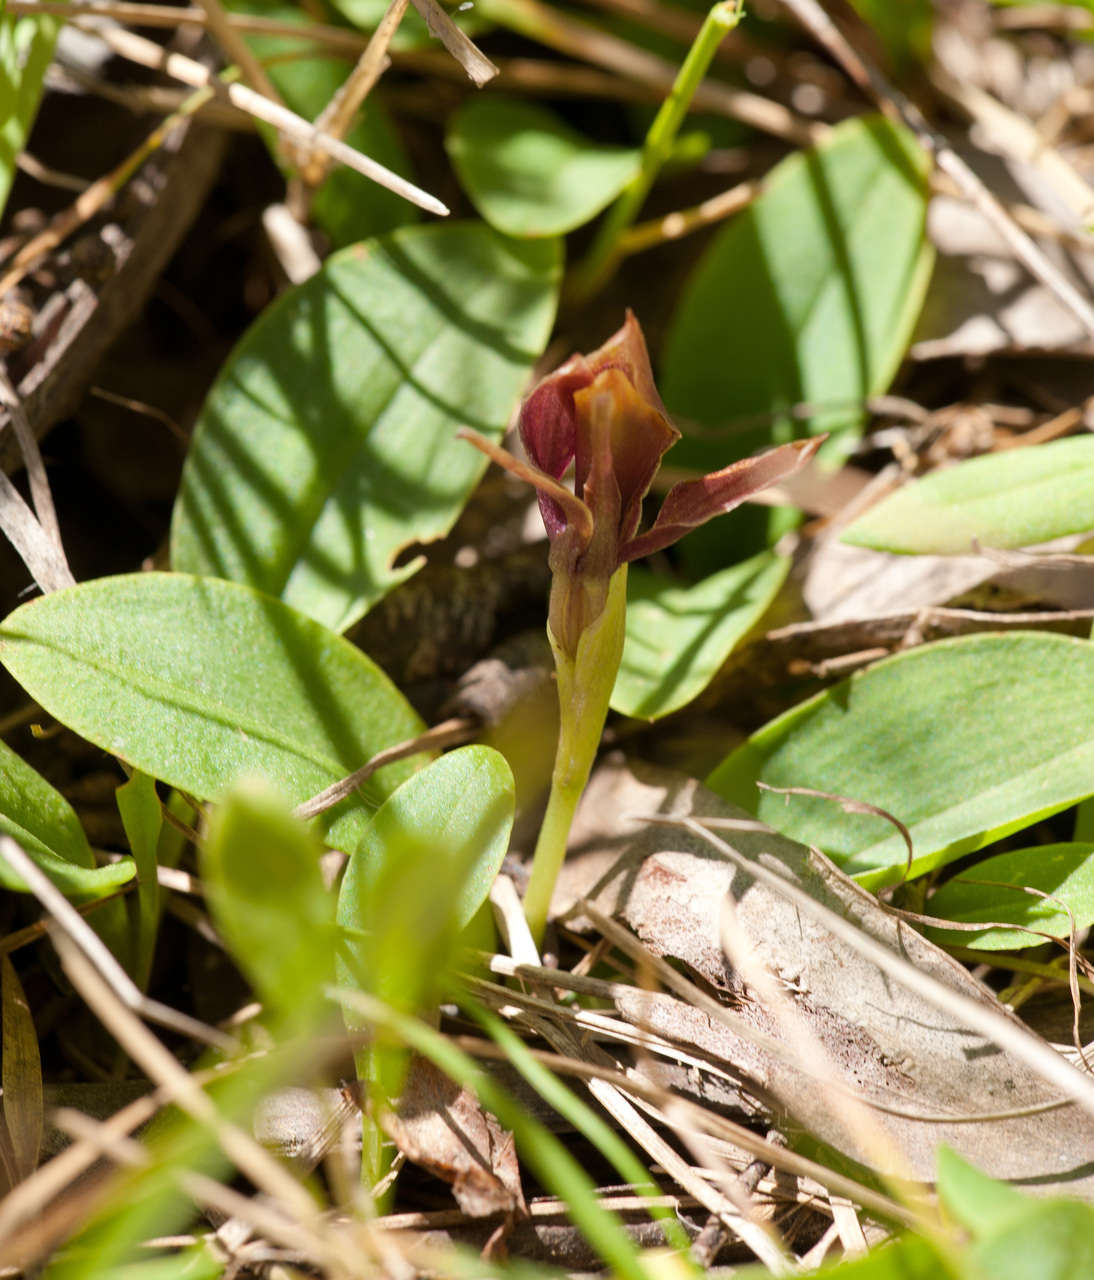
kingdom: Plantae
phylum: Tracheophyta
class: Liliopsida
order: Asparagales
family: Orchidaceae
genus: Chiloglottis
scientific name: Chiloglottis valida
